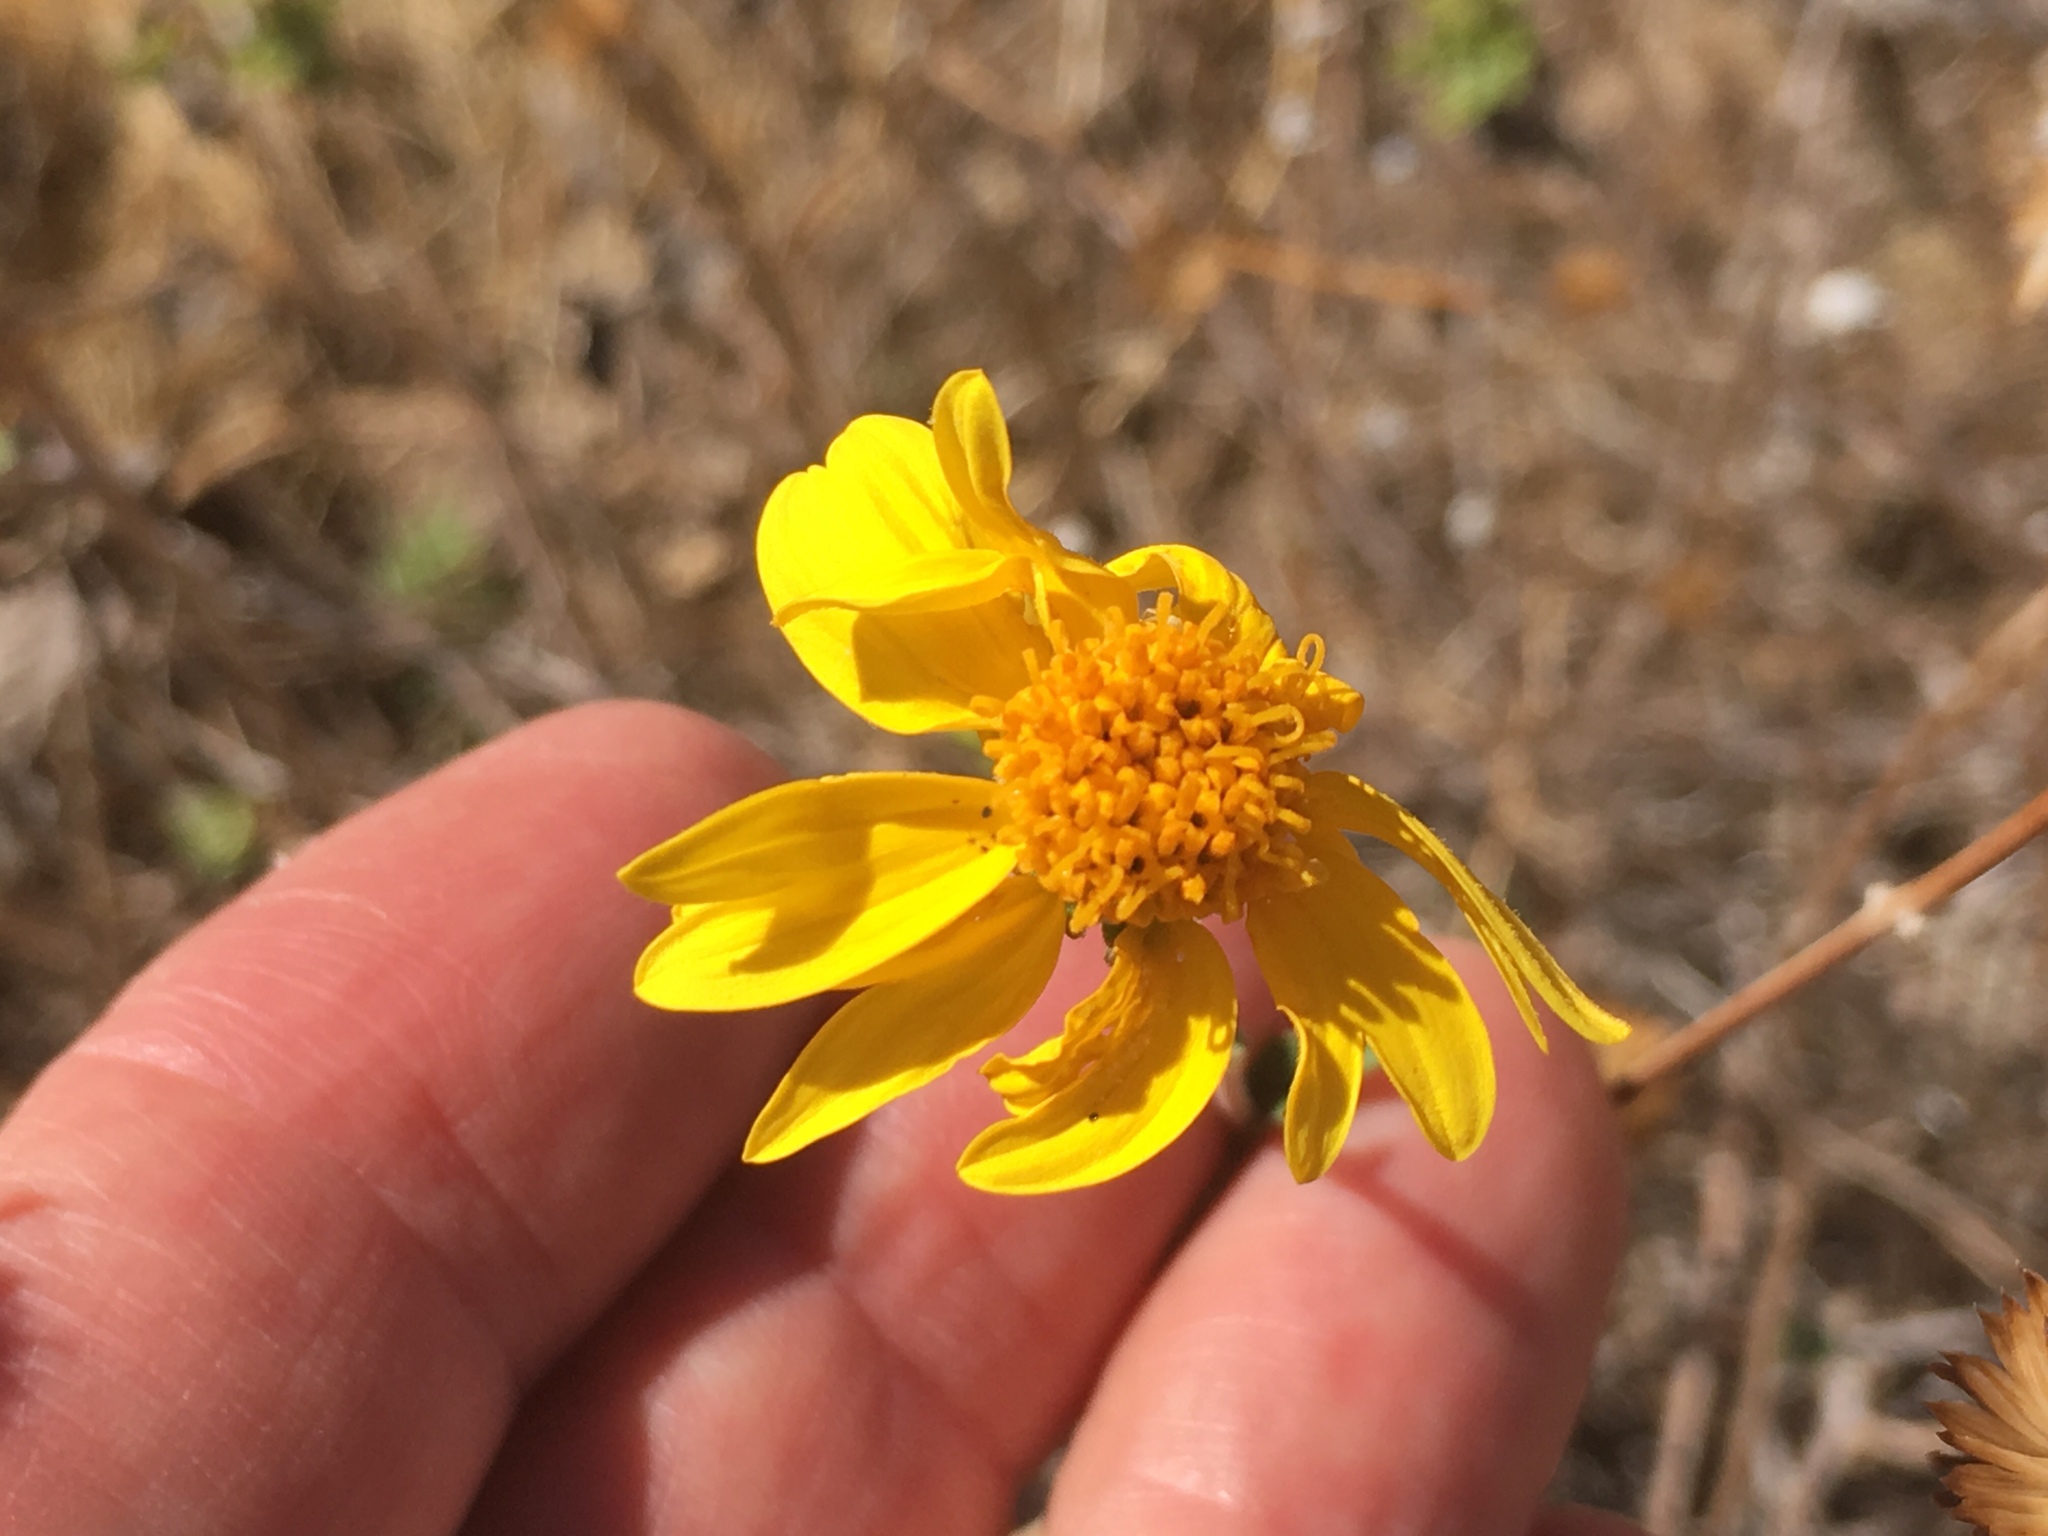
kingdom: Plantae
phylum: Tracheophyta
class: Magnoliopsida
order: Asterales
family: Asteraceae
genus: Bahiopsis
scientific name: Bahiopsis parishii
